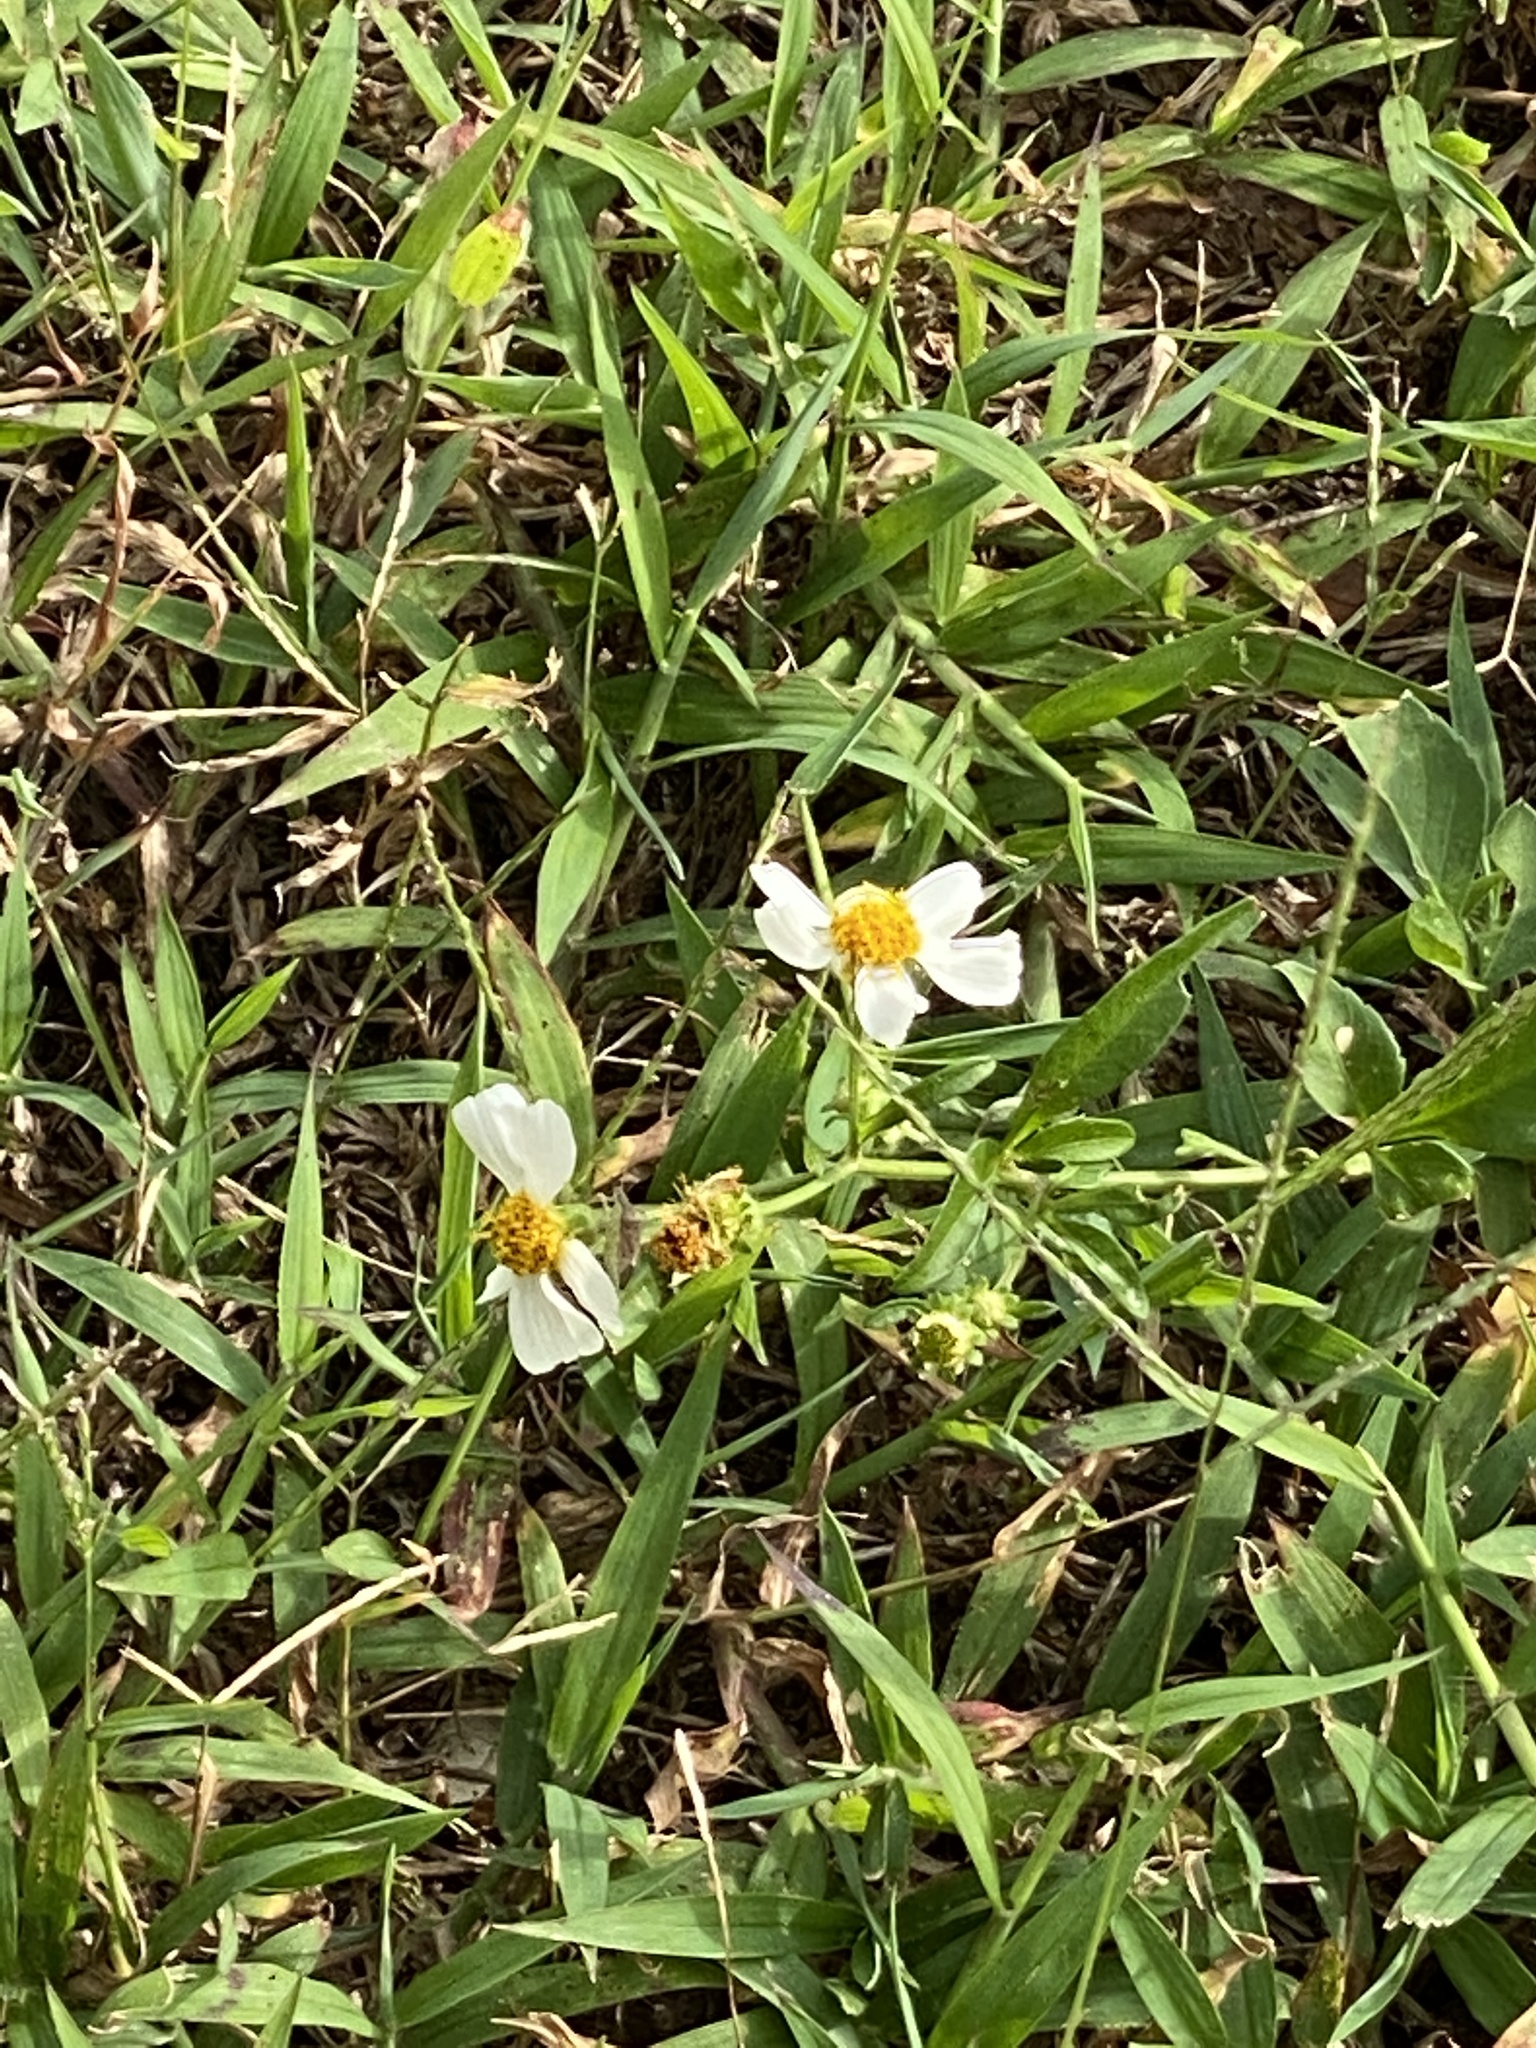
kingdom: Plantae
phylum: Tracheophyta
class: Magnoliopsida
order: Asterales
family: Asteraceae
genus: Bidens
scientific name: Bidens alba
